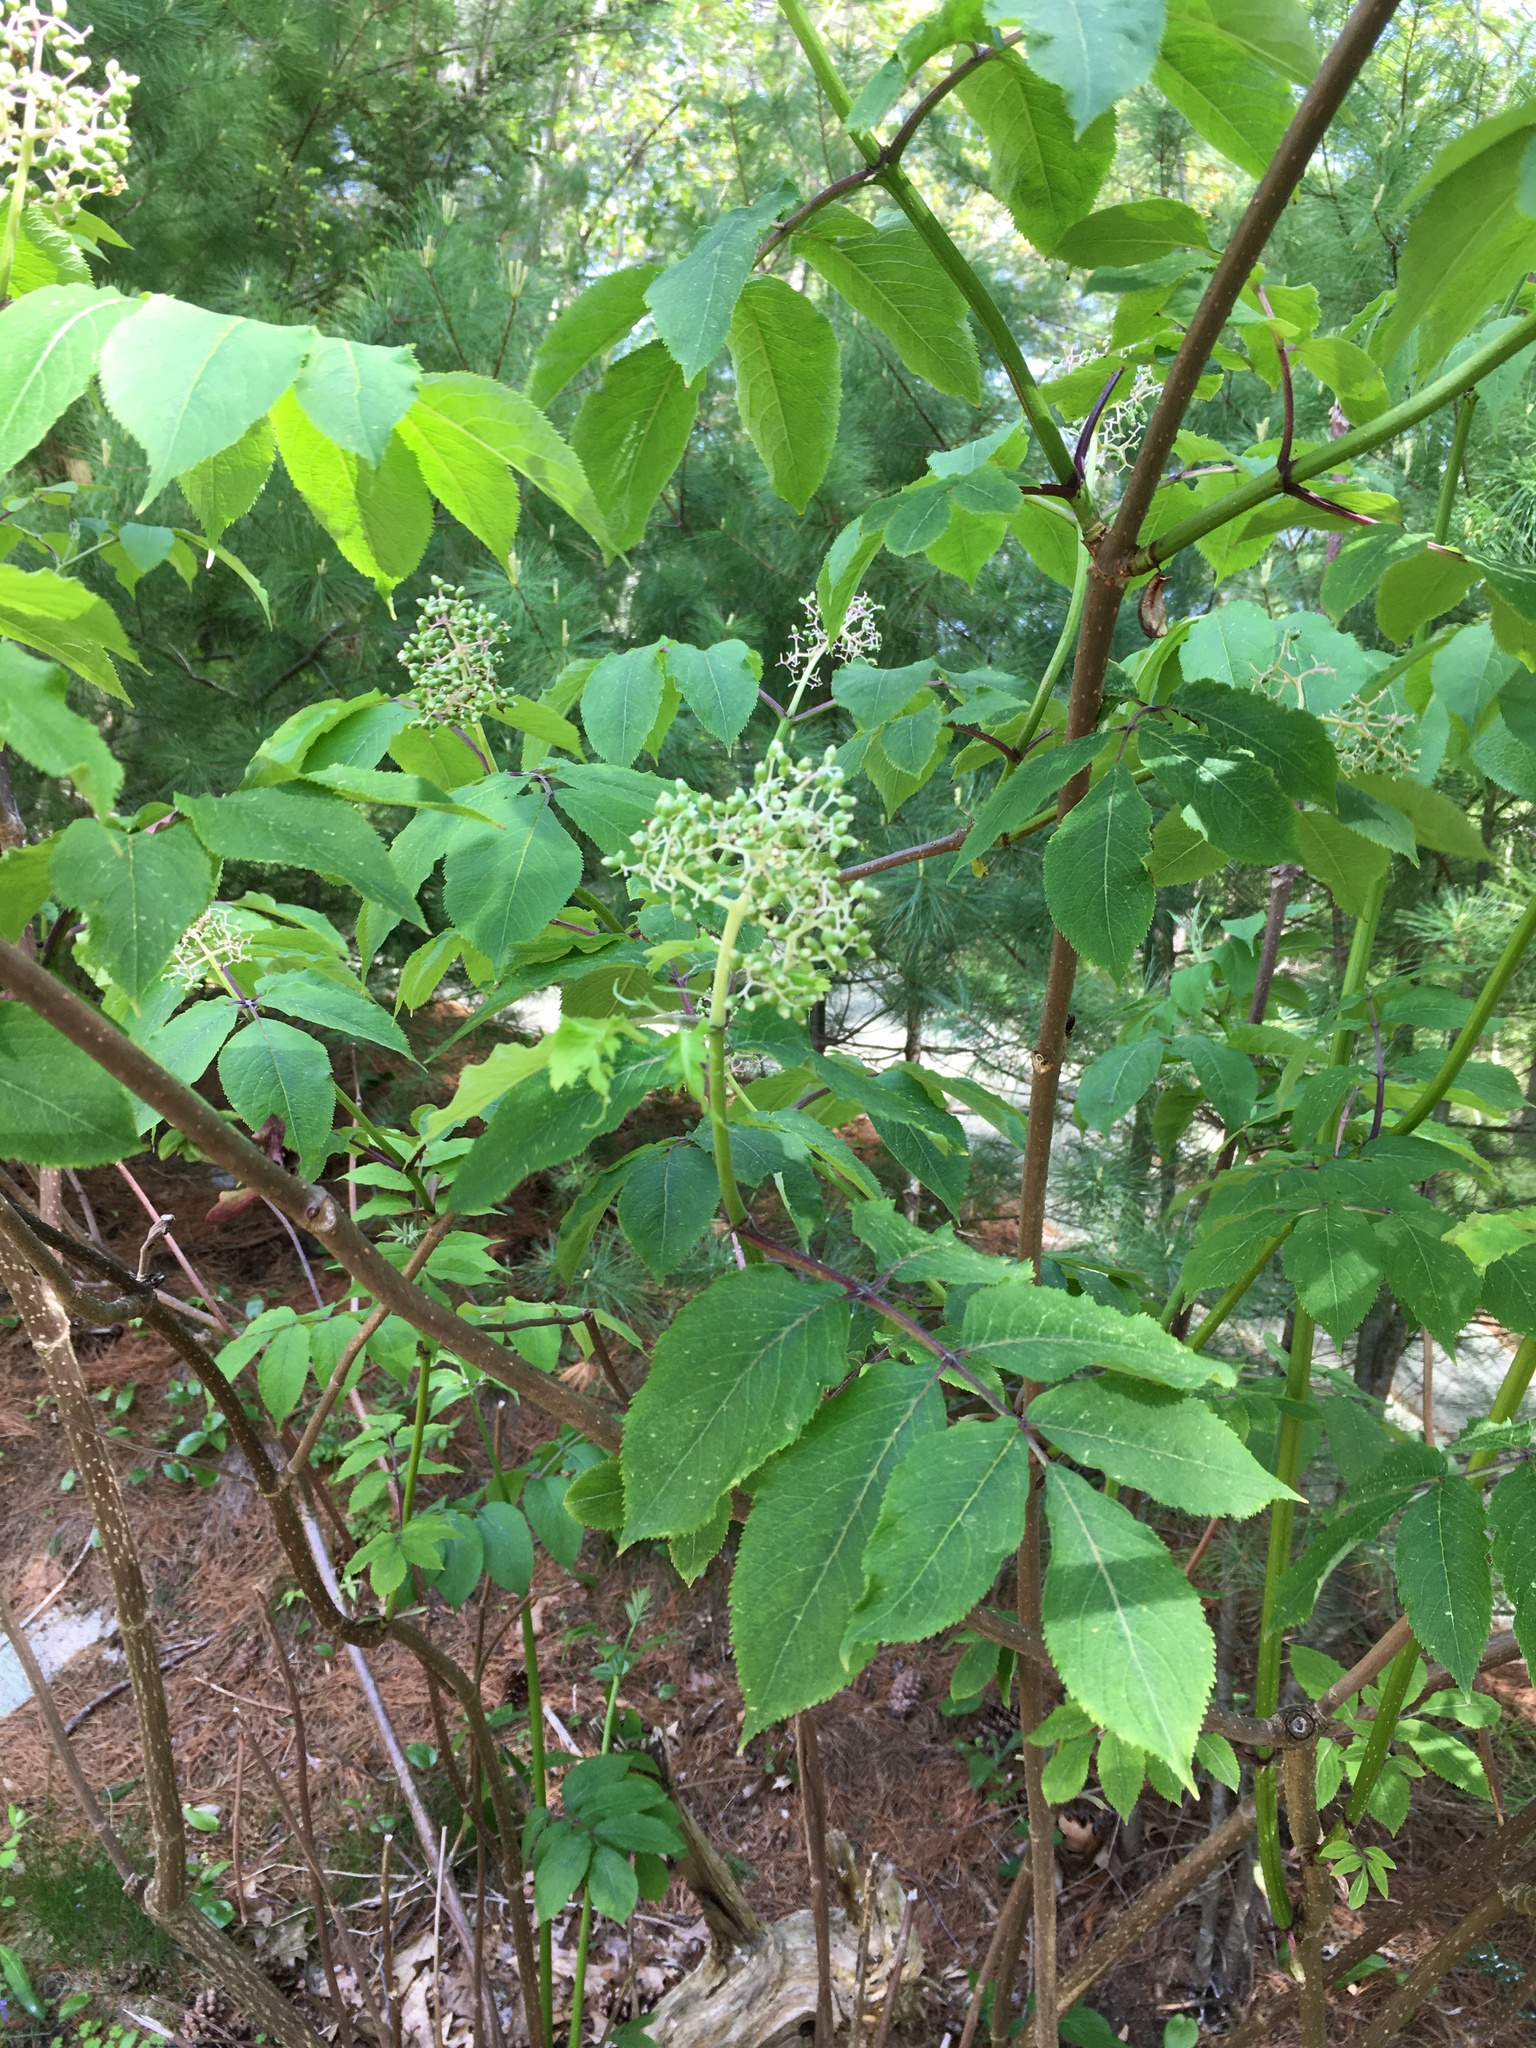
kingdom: Plantae
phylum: Tracheophyta
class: Magnoliopsida
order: Dipsacales
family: Viburnaceae
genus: Sambucus
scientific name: Sambucus racemosa
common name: Red-berried elder
